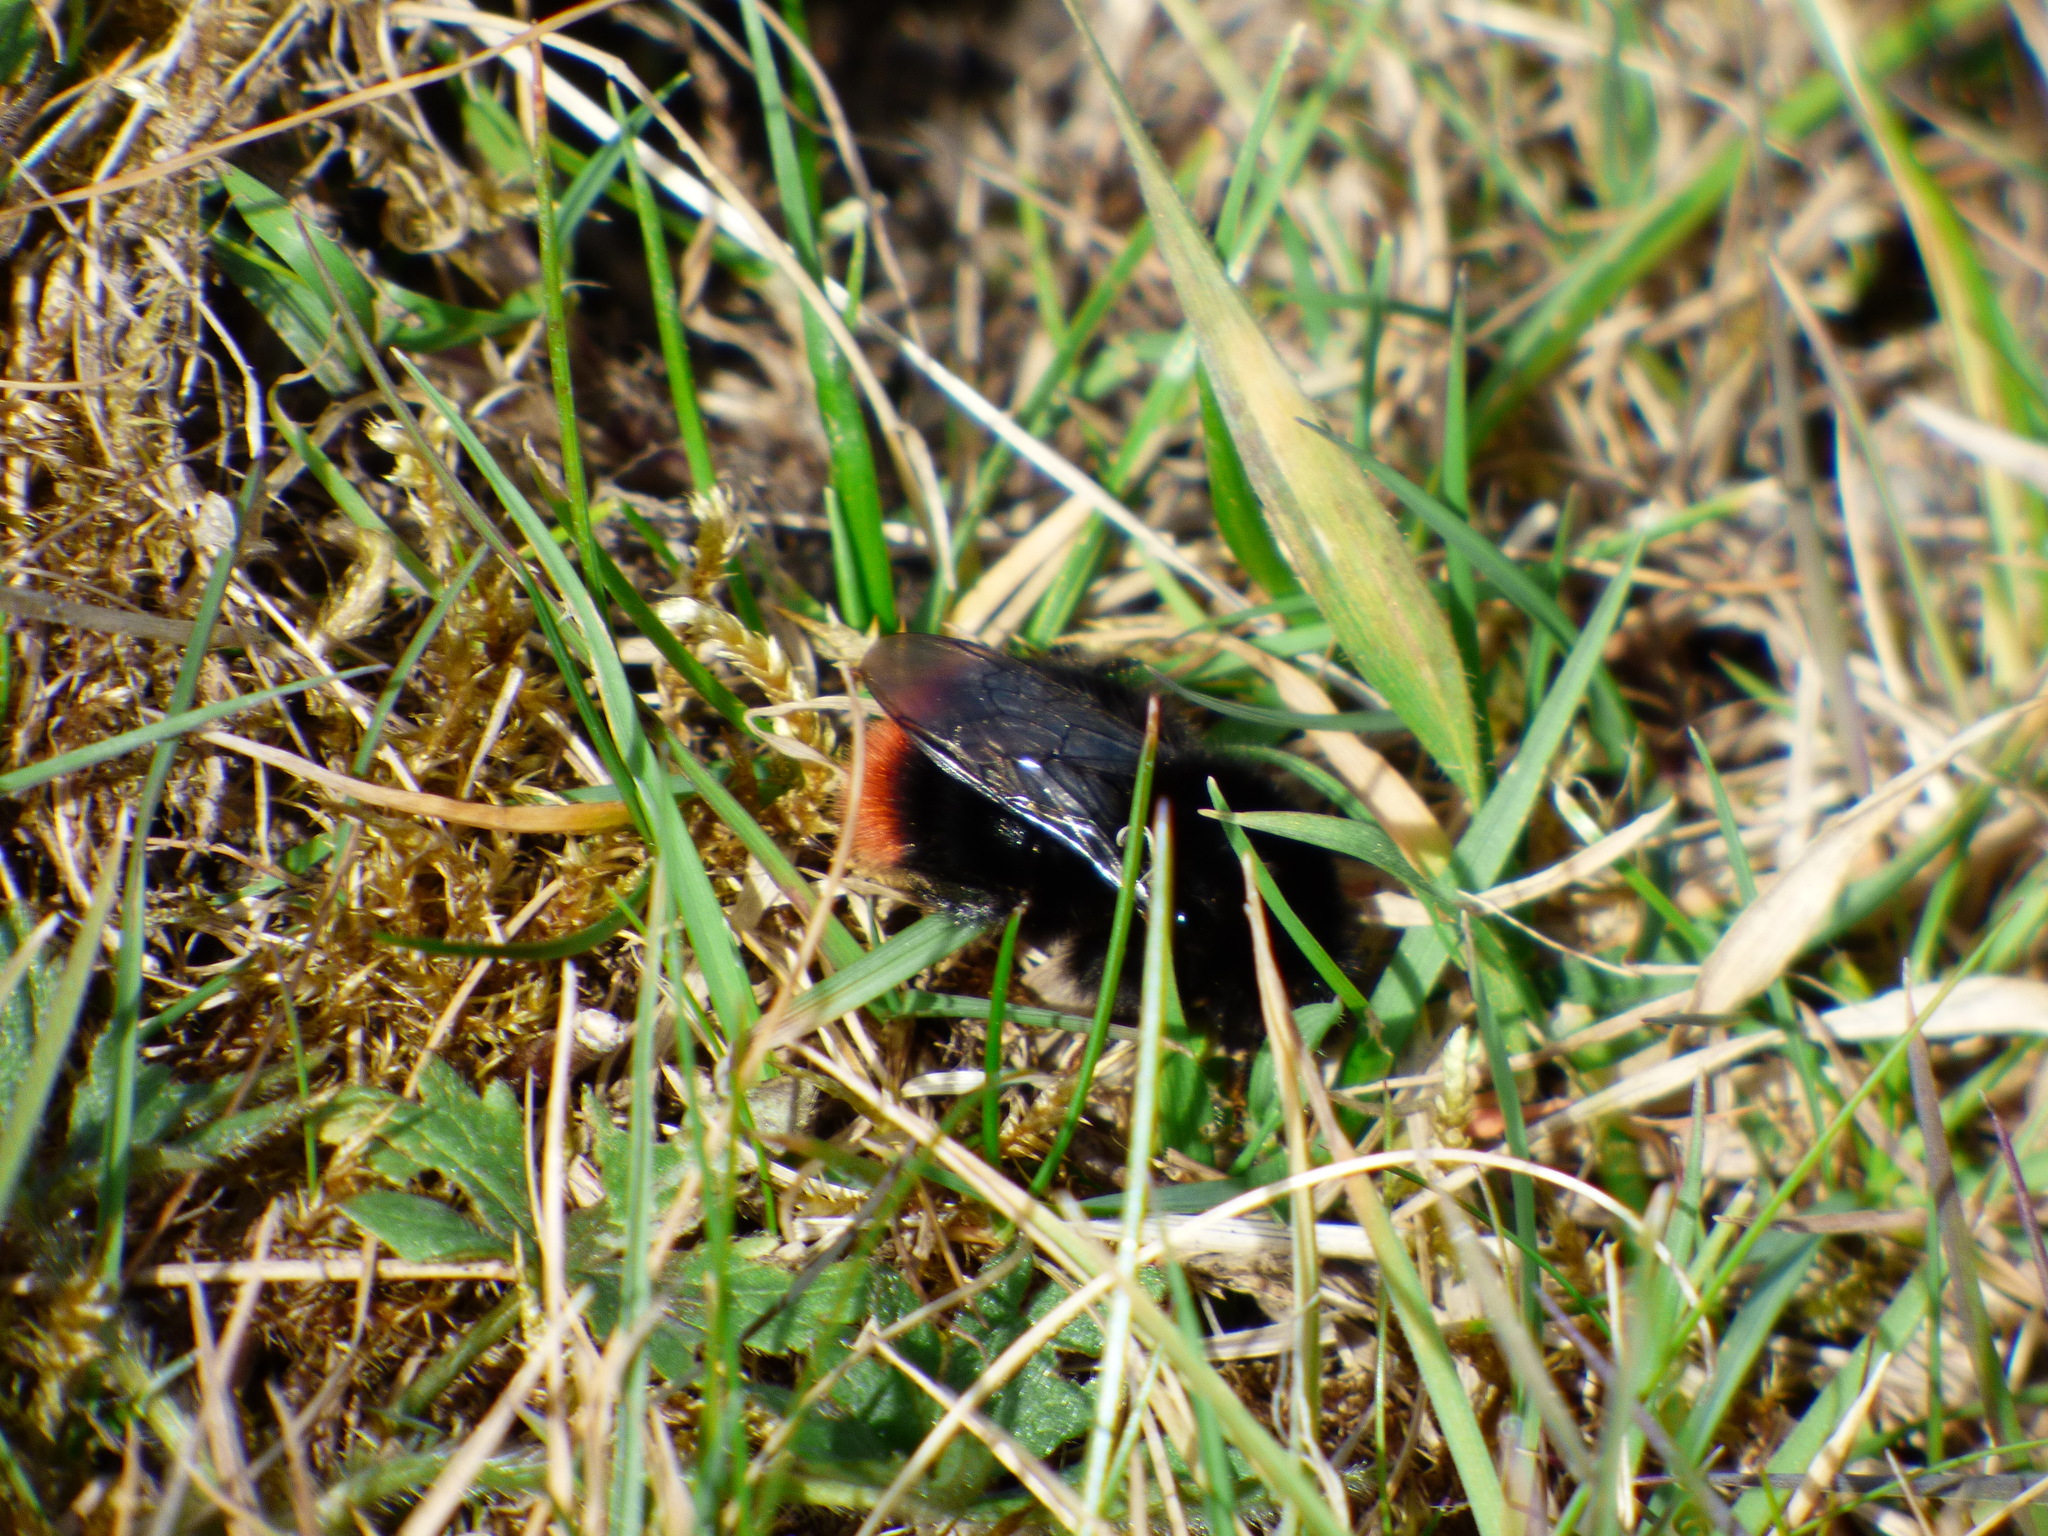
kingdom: Animalia
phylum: Arthropoda
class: Insecta
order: Hymenoptera
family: Apidae
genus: Bombus
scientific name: Bombus lapidarius
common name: Large red-tailed humble-bee
